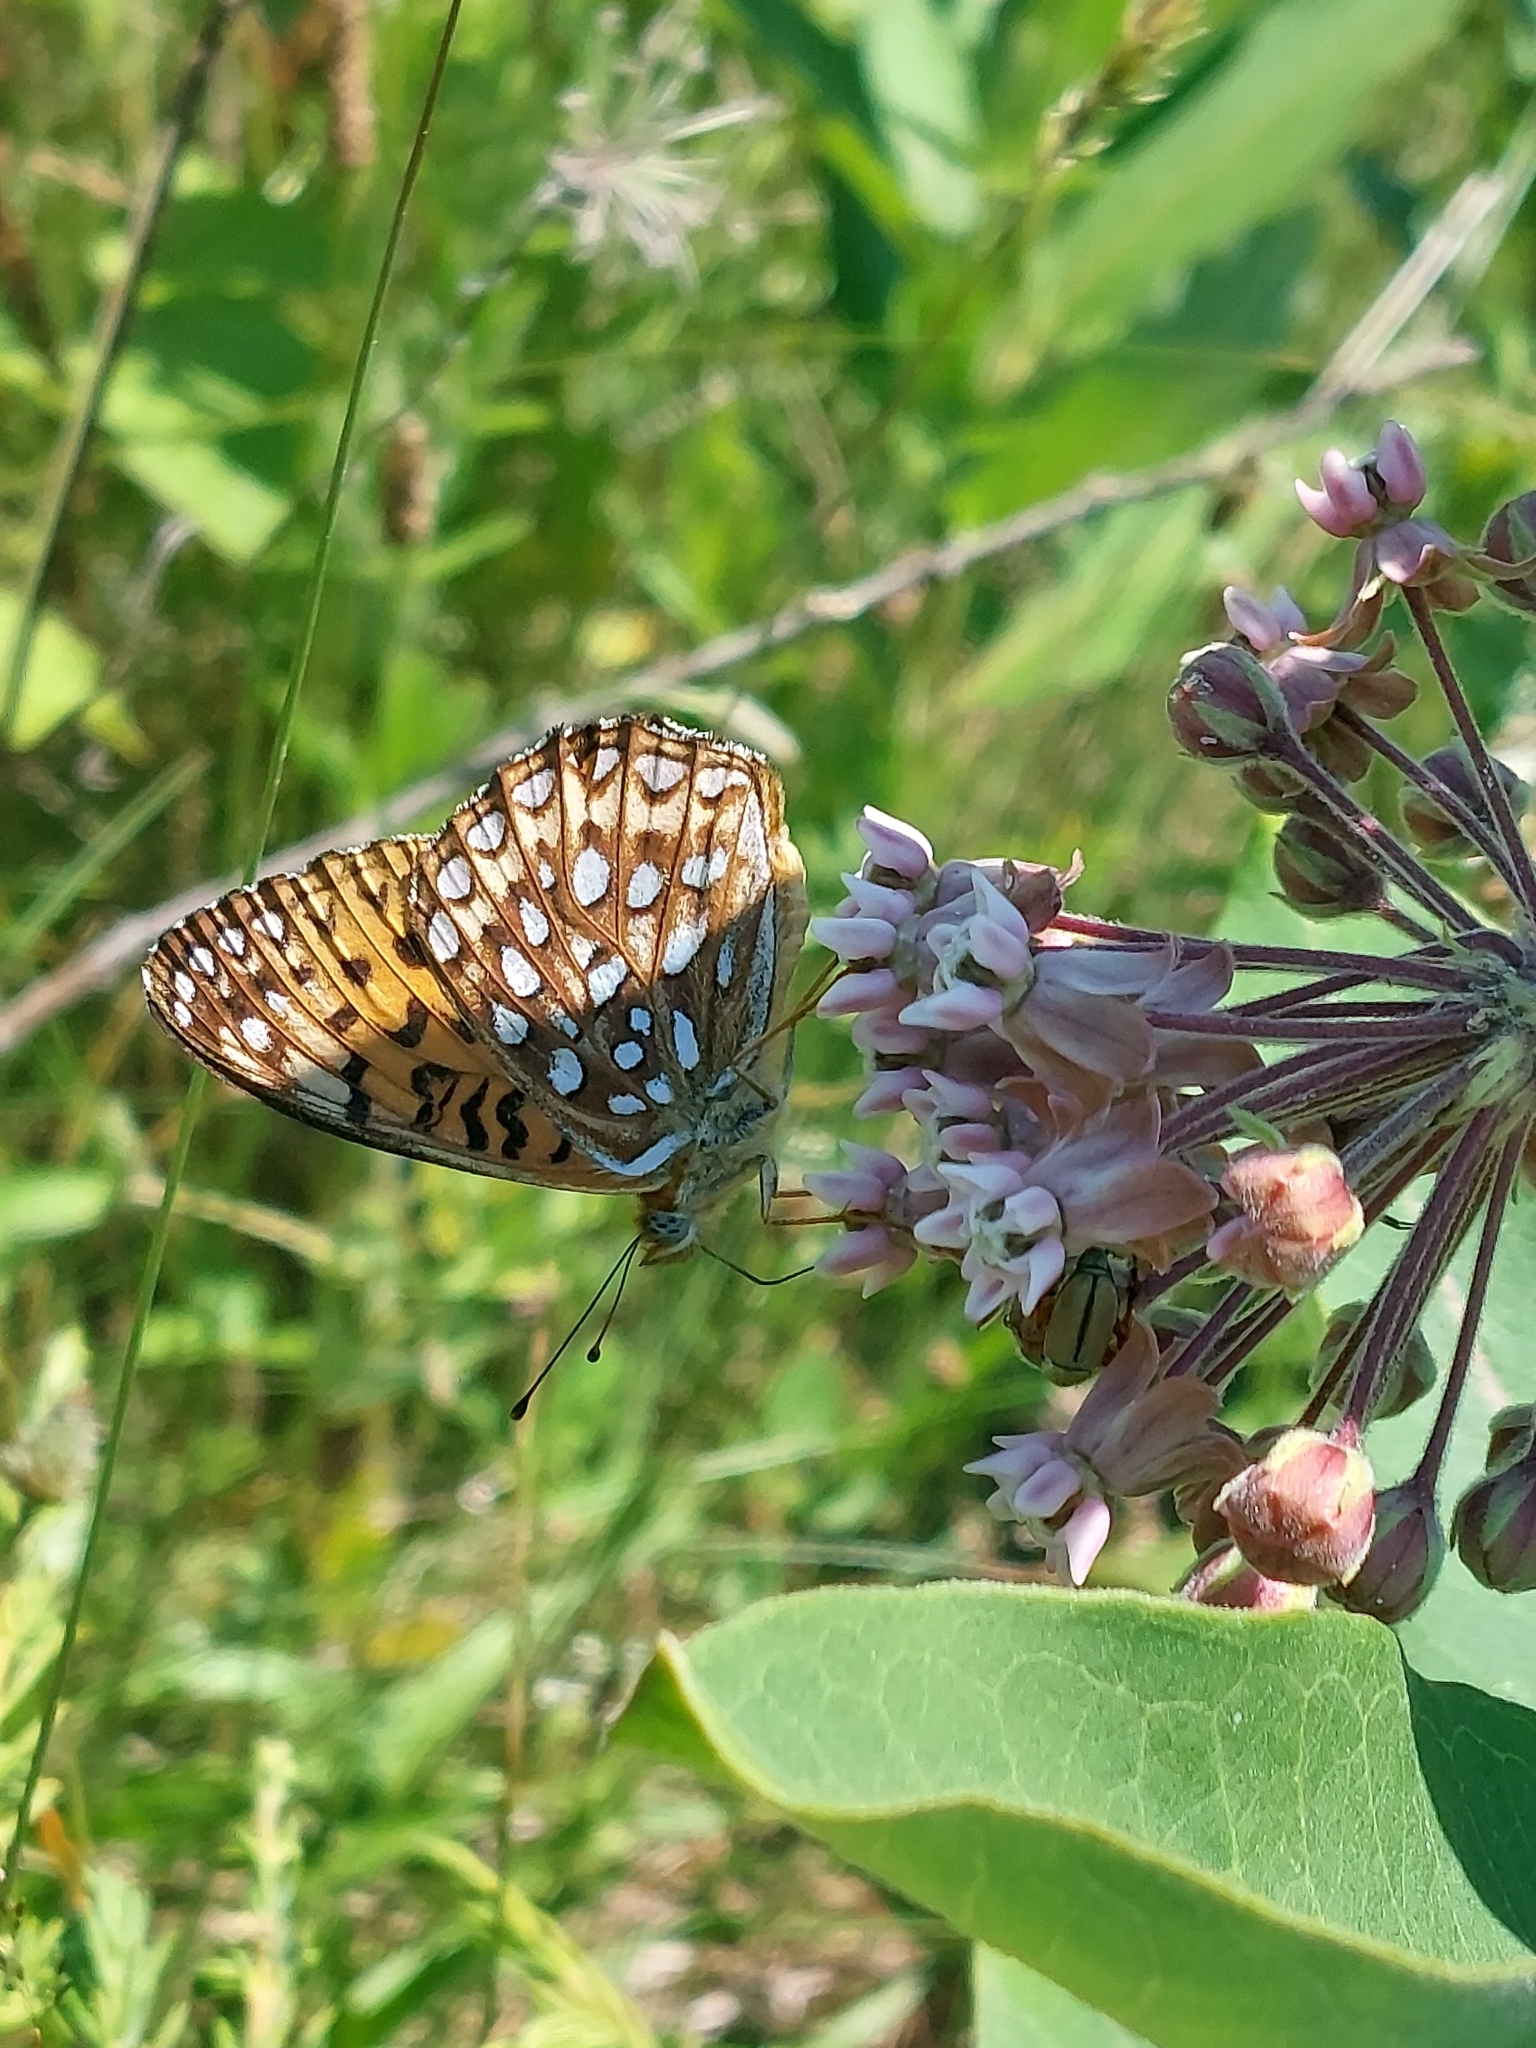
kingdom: Animalia
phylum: Arthropoda
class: Insecta
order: Lepidoptera
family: Nymphalidae
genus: Speyeria
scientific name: Speyeria atlantis
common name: Atlantis fritillary
